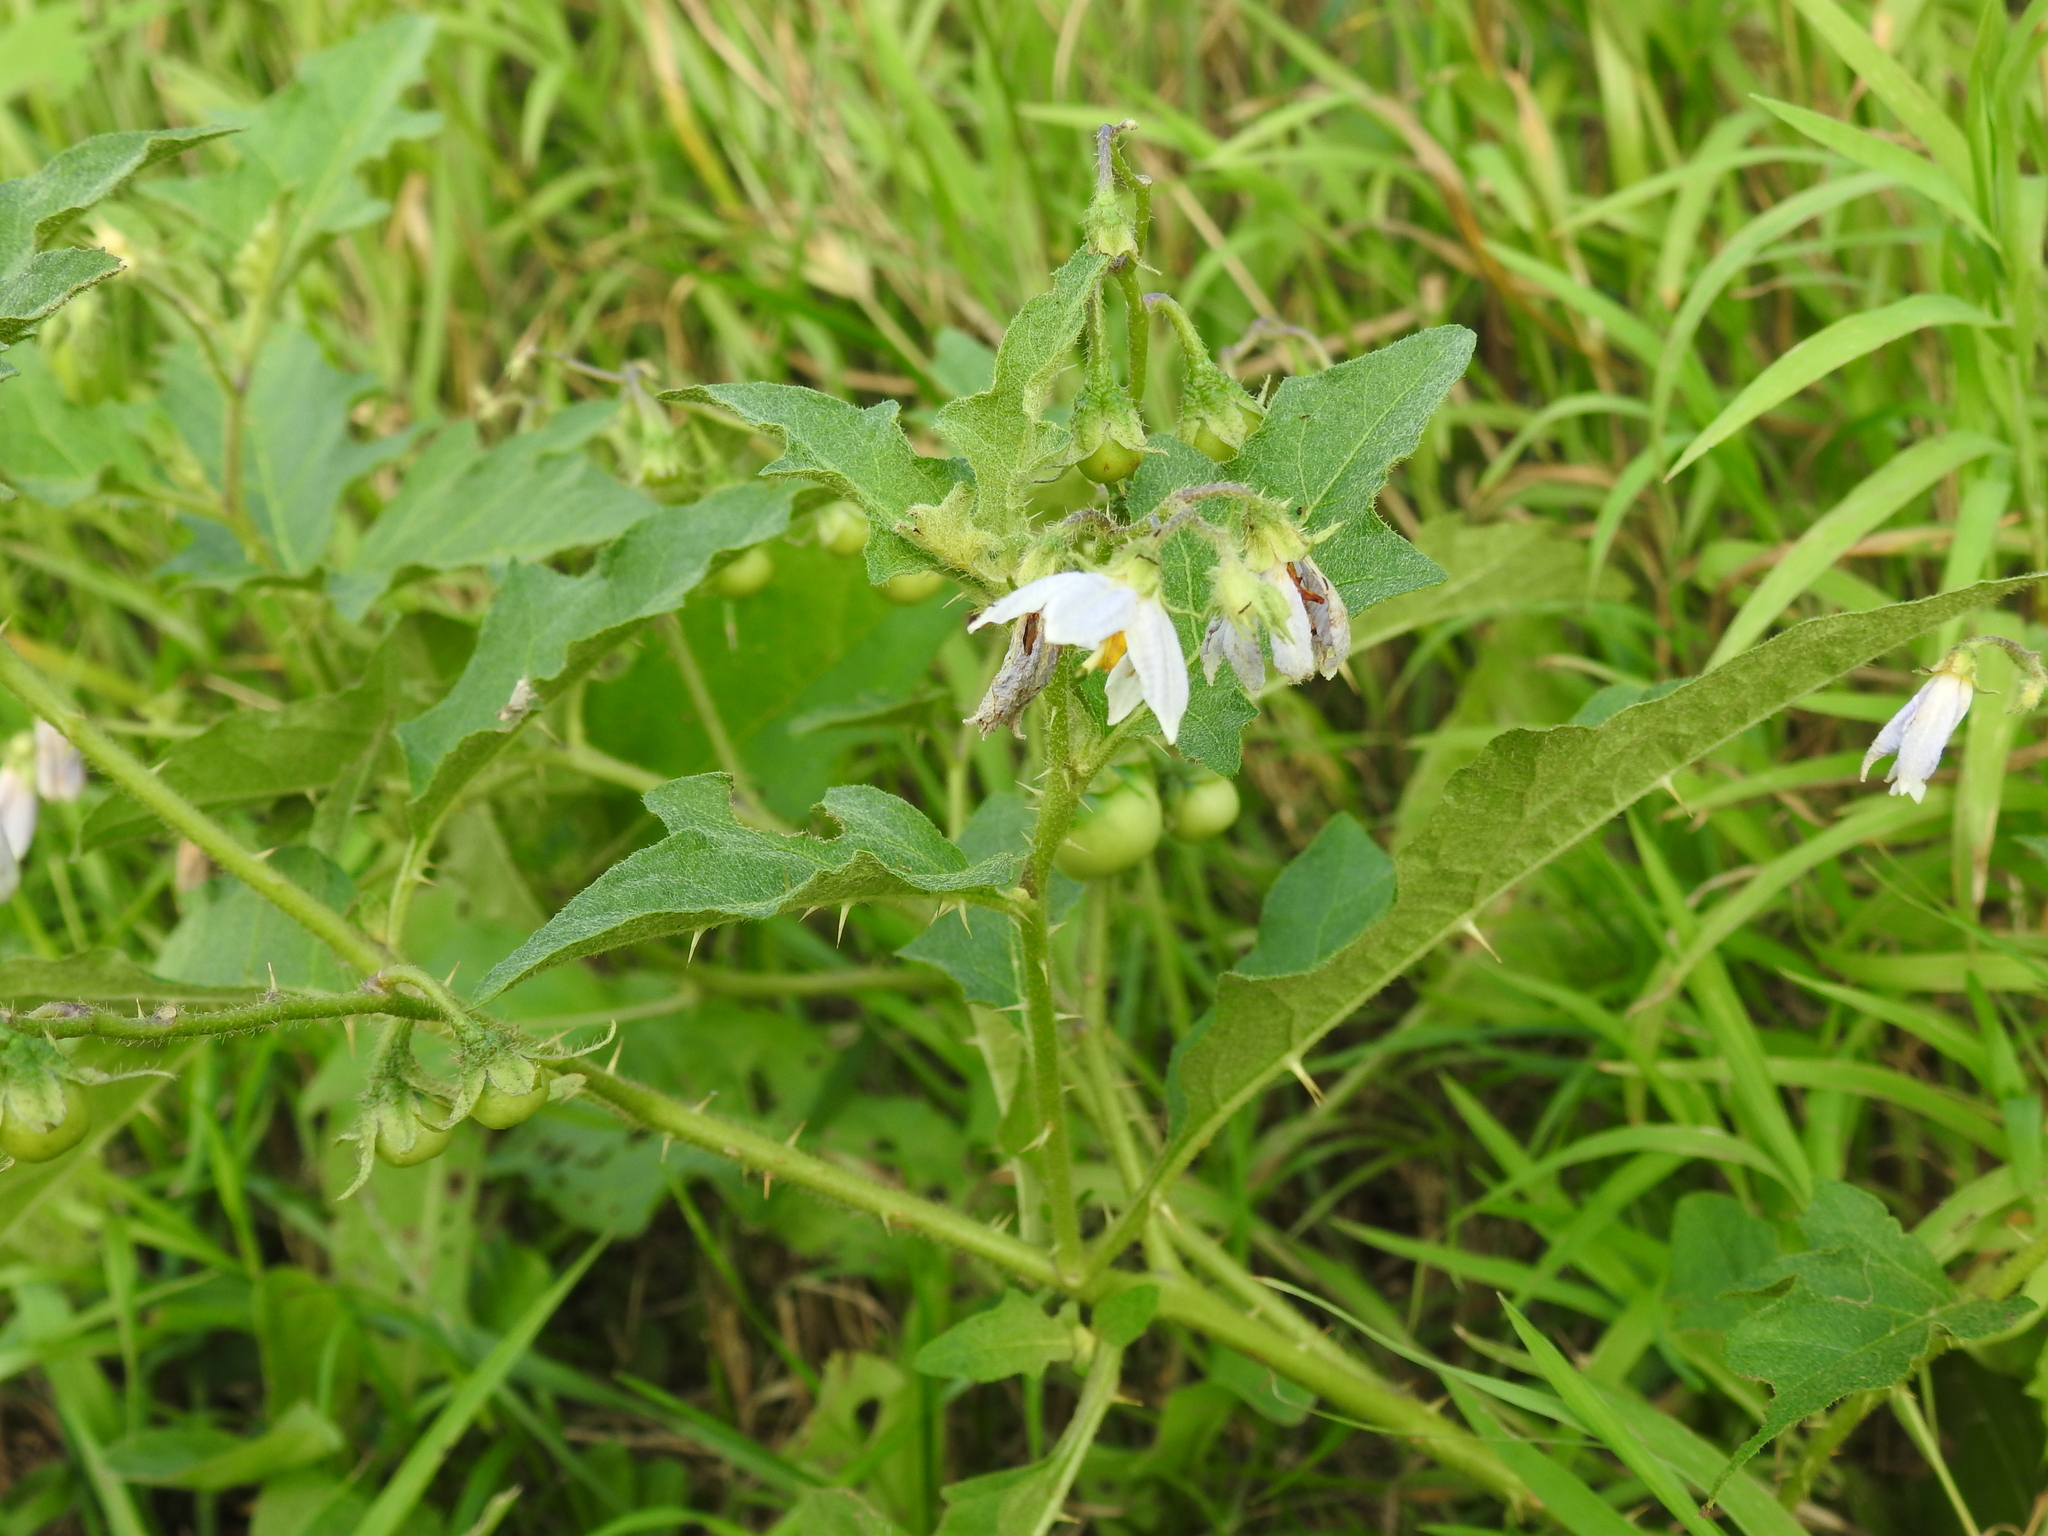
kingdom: Plantae
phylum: Tracheophyta
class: Magnoliopsida
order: Solanales
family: Solanaceae
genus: Solanum
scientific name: Solanum carolinense
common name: Horse-nettle
